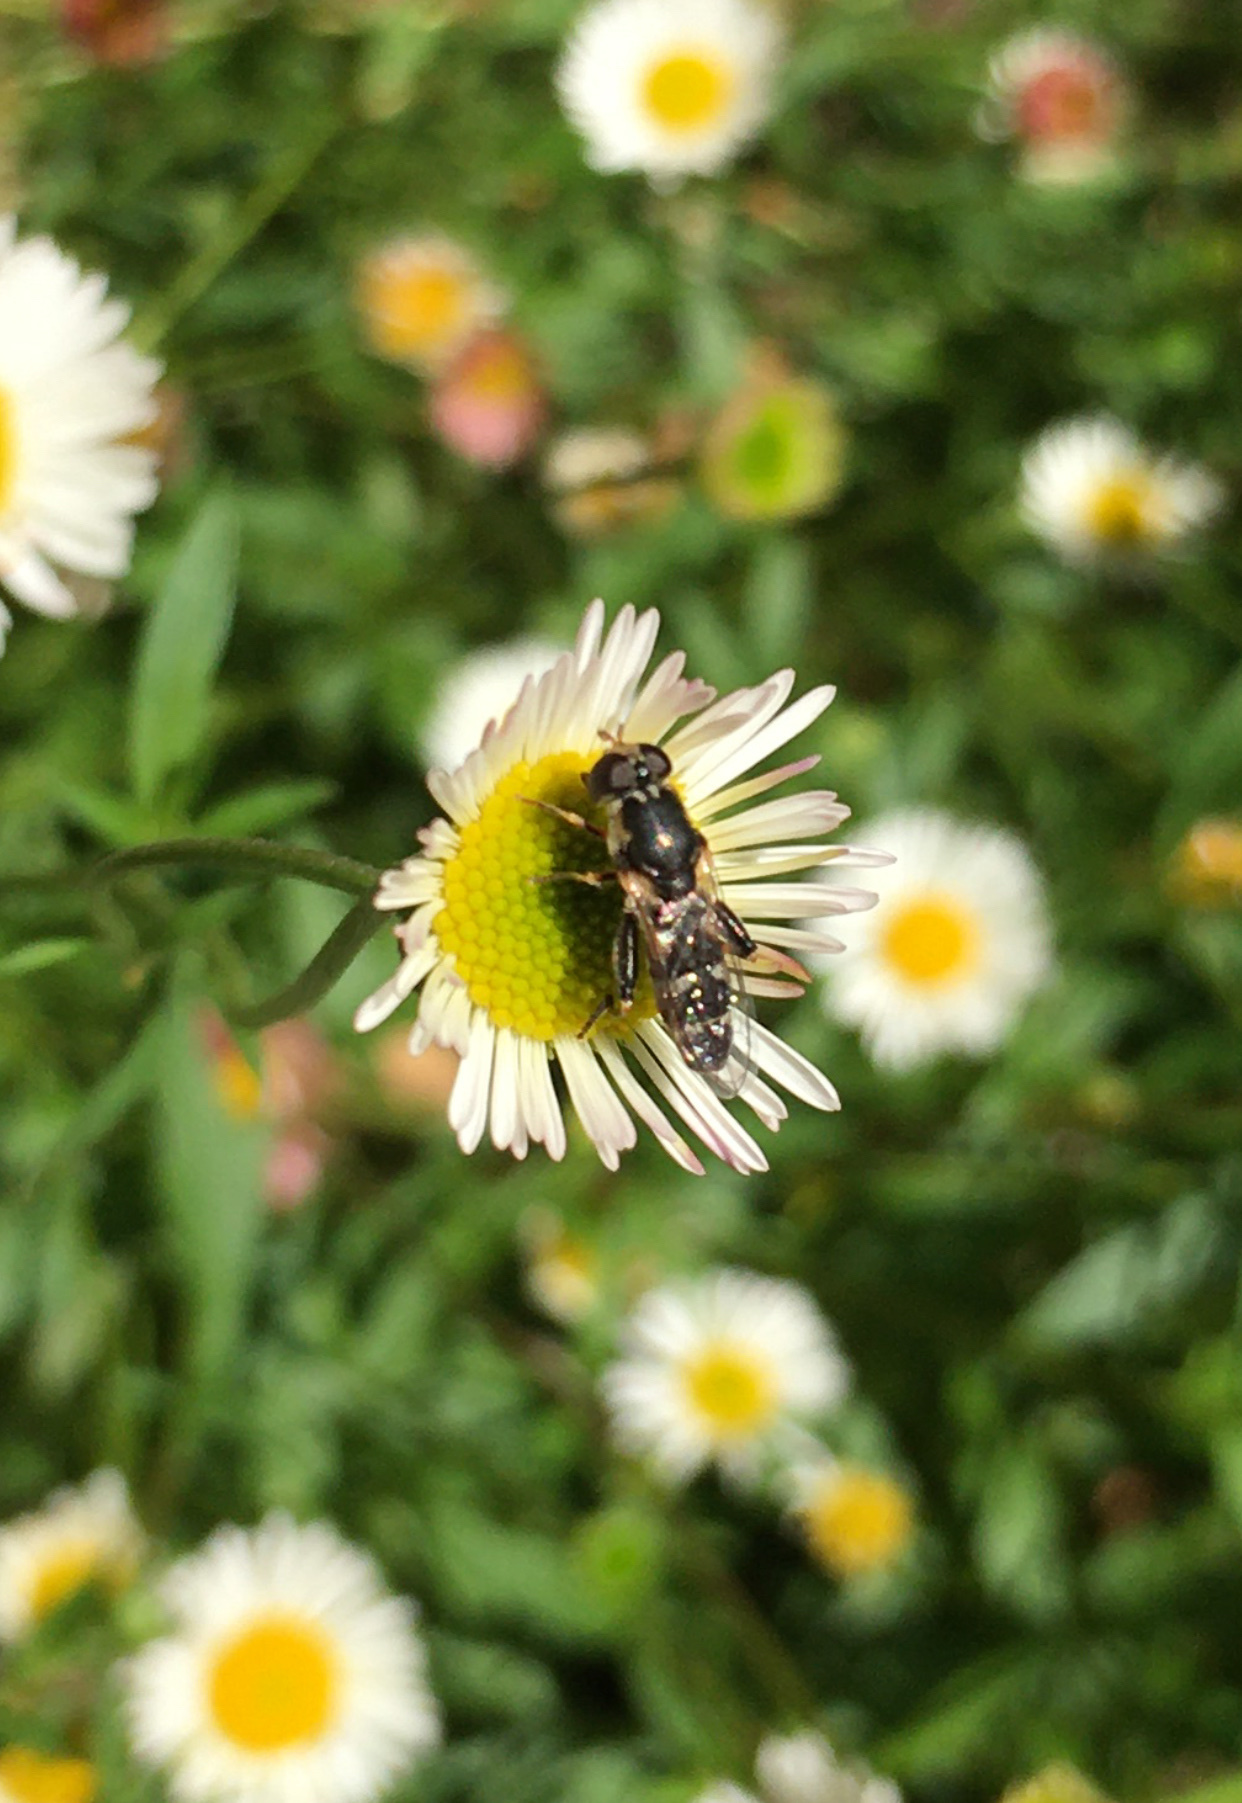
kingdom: Animalia
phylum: Arthropoda
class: Insecta
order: Diptera
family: Syrphidae
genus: Syritta
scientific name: Syritta pipiens
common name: Hover fly
